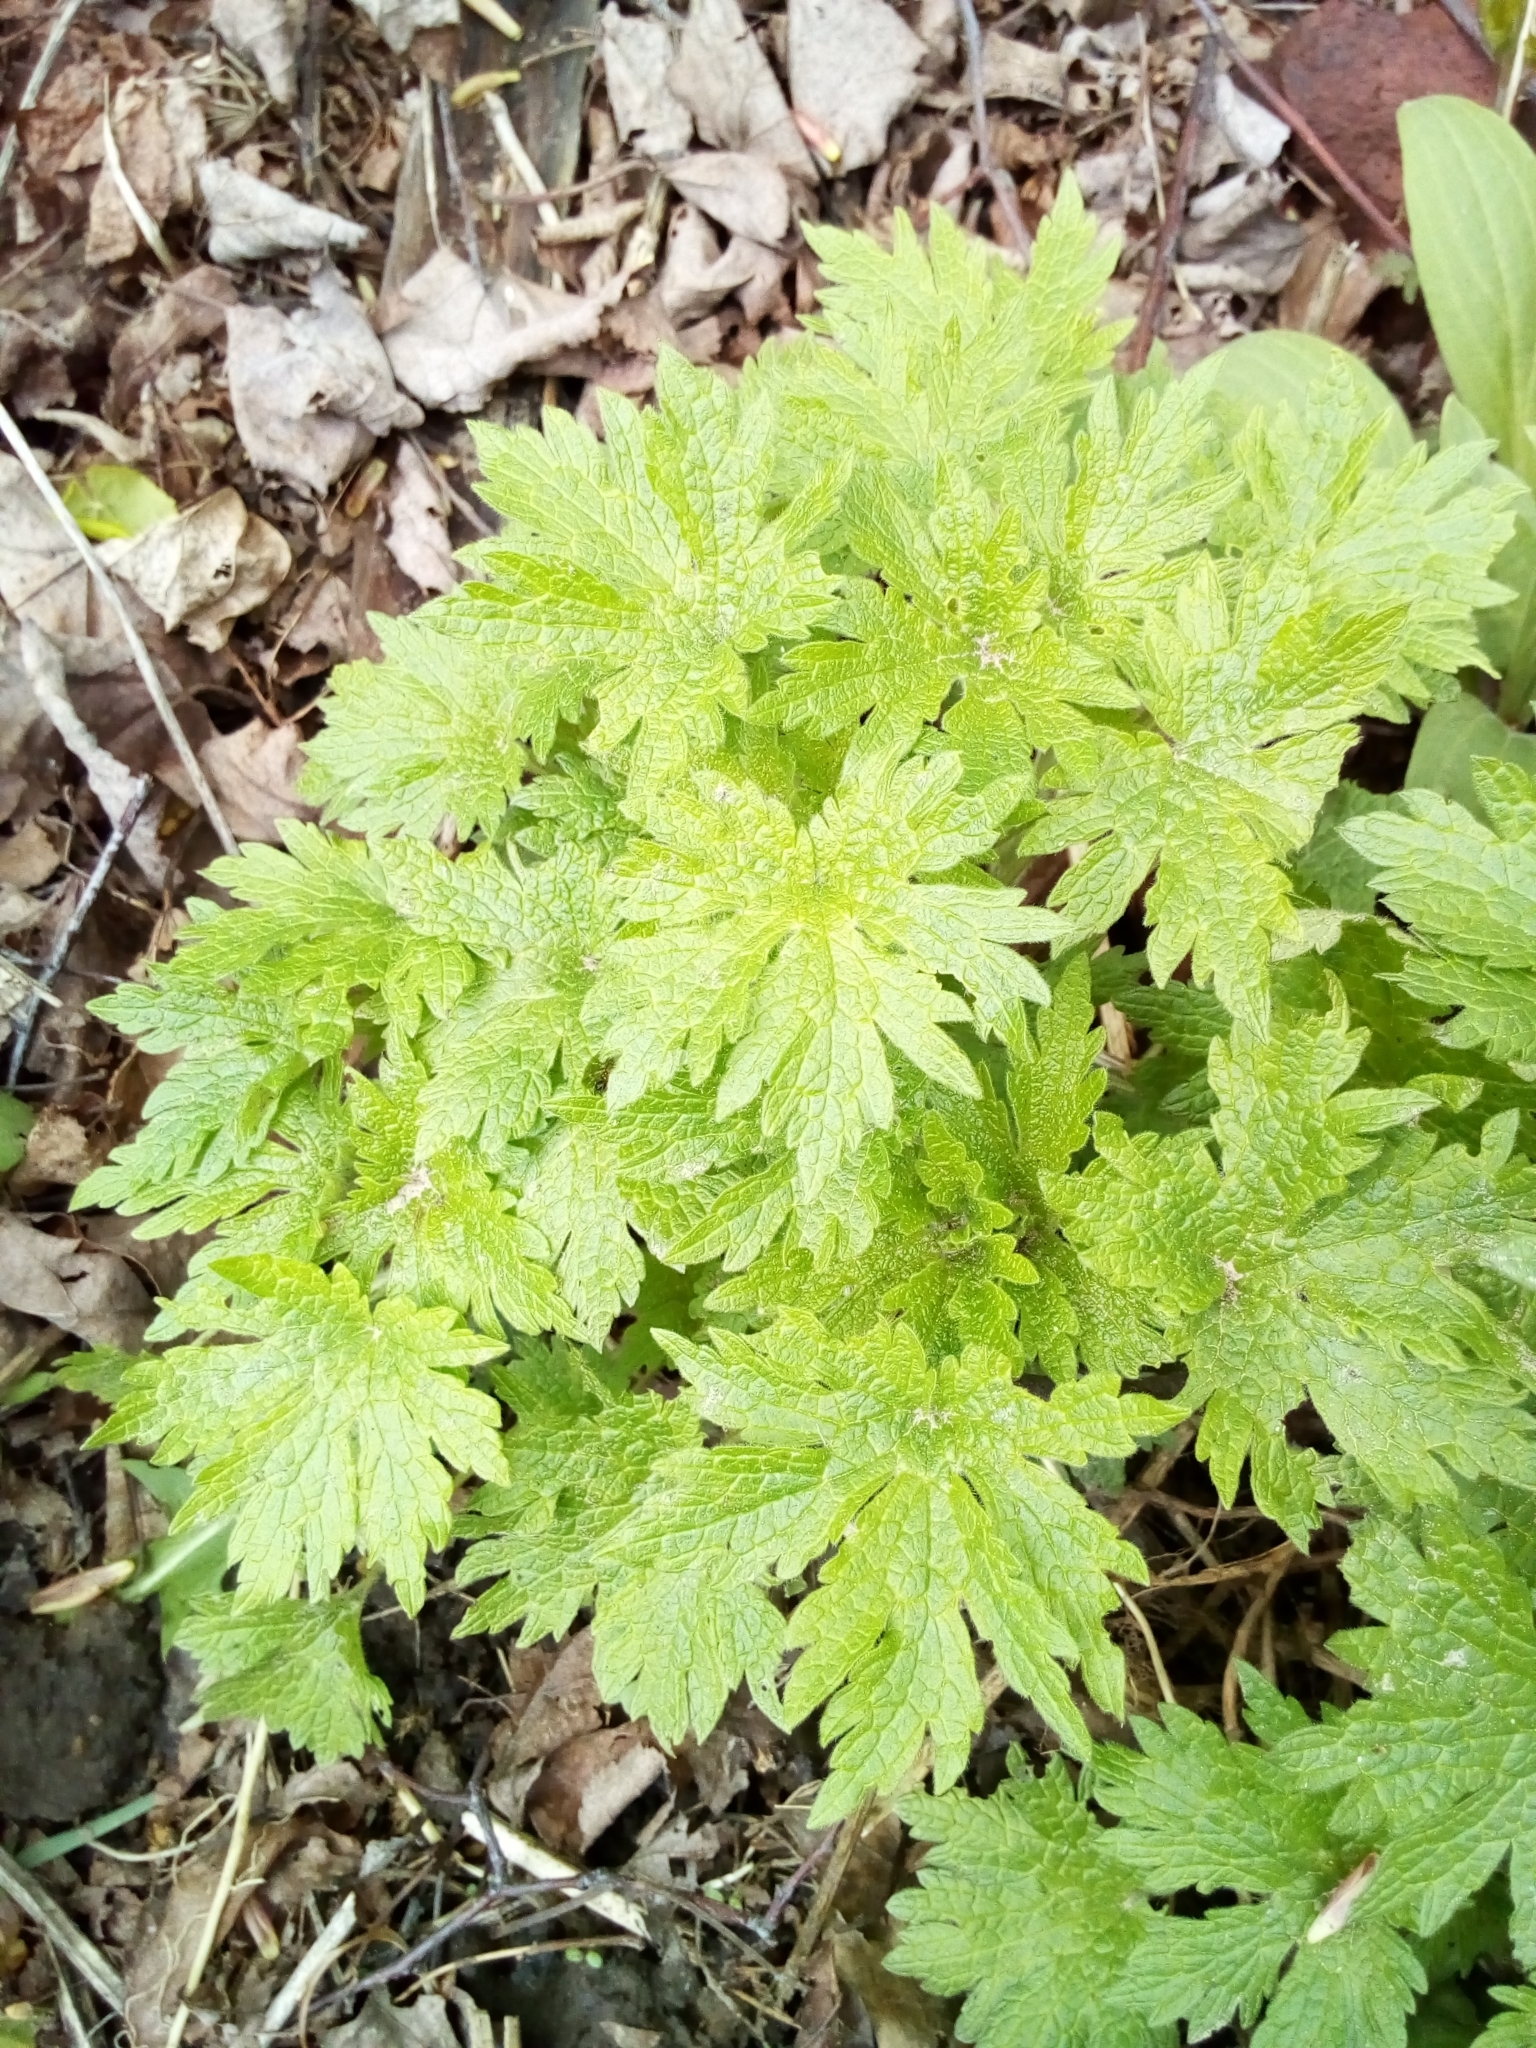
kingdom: Plantae
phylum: Tracheophyta
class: Magnoliopsida
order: Lamiales
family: Lamiaceae
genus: Leonurus
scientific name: Leonurus quinquelobatus
